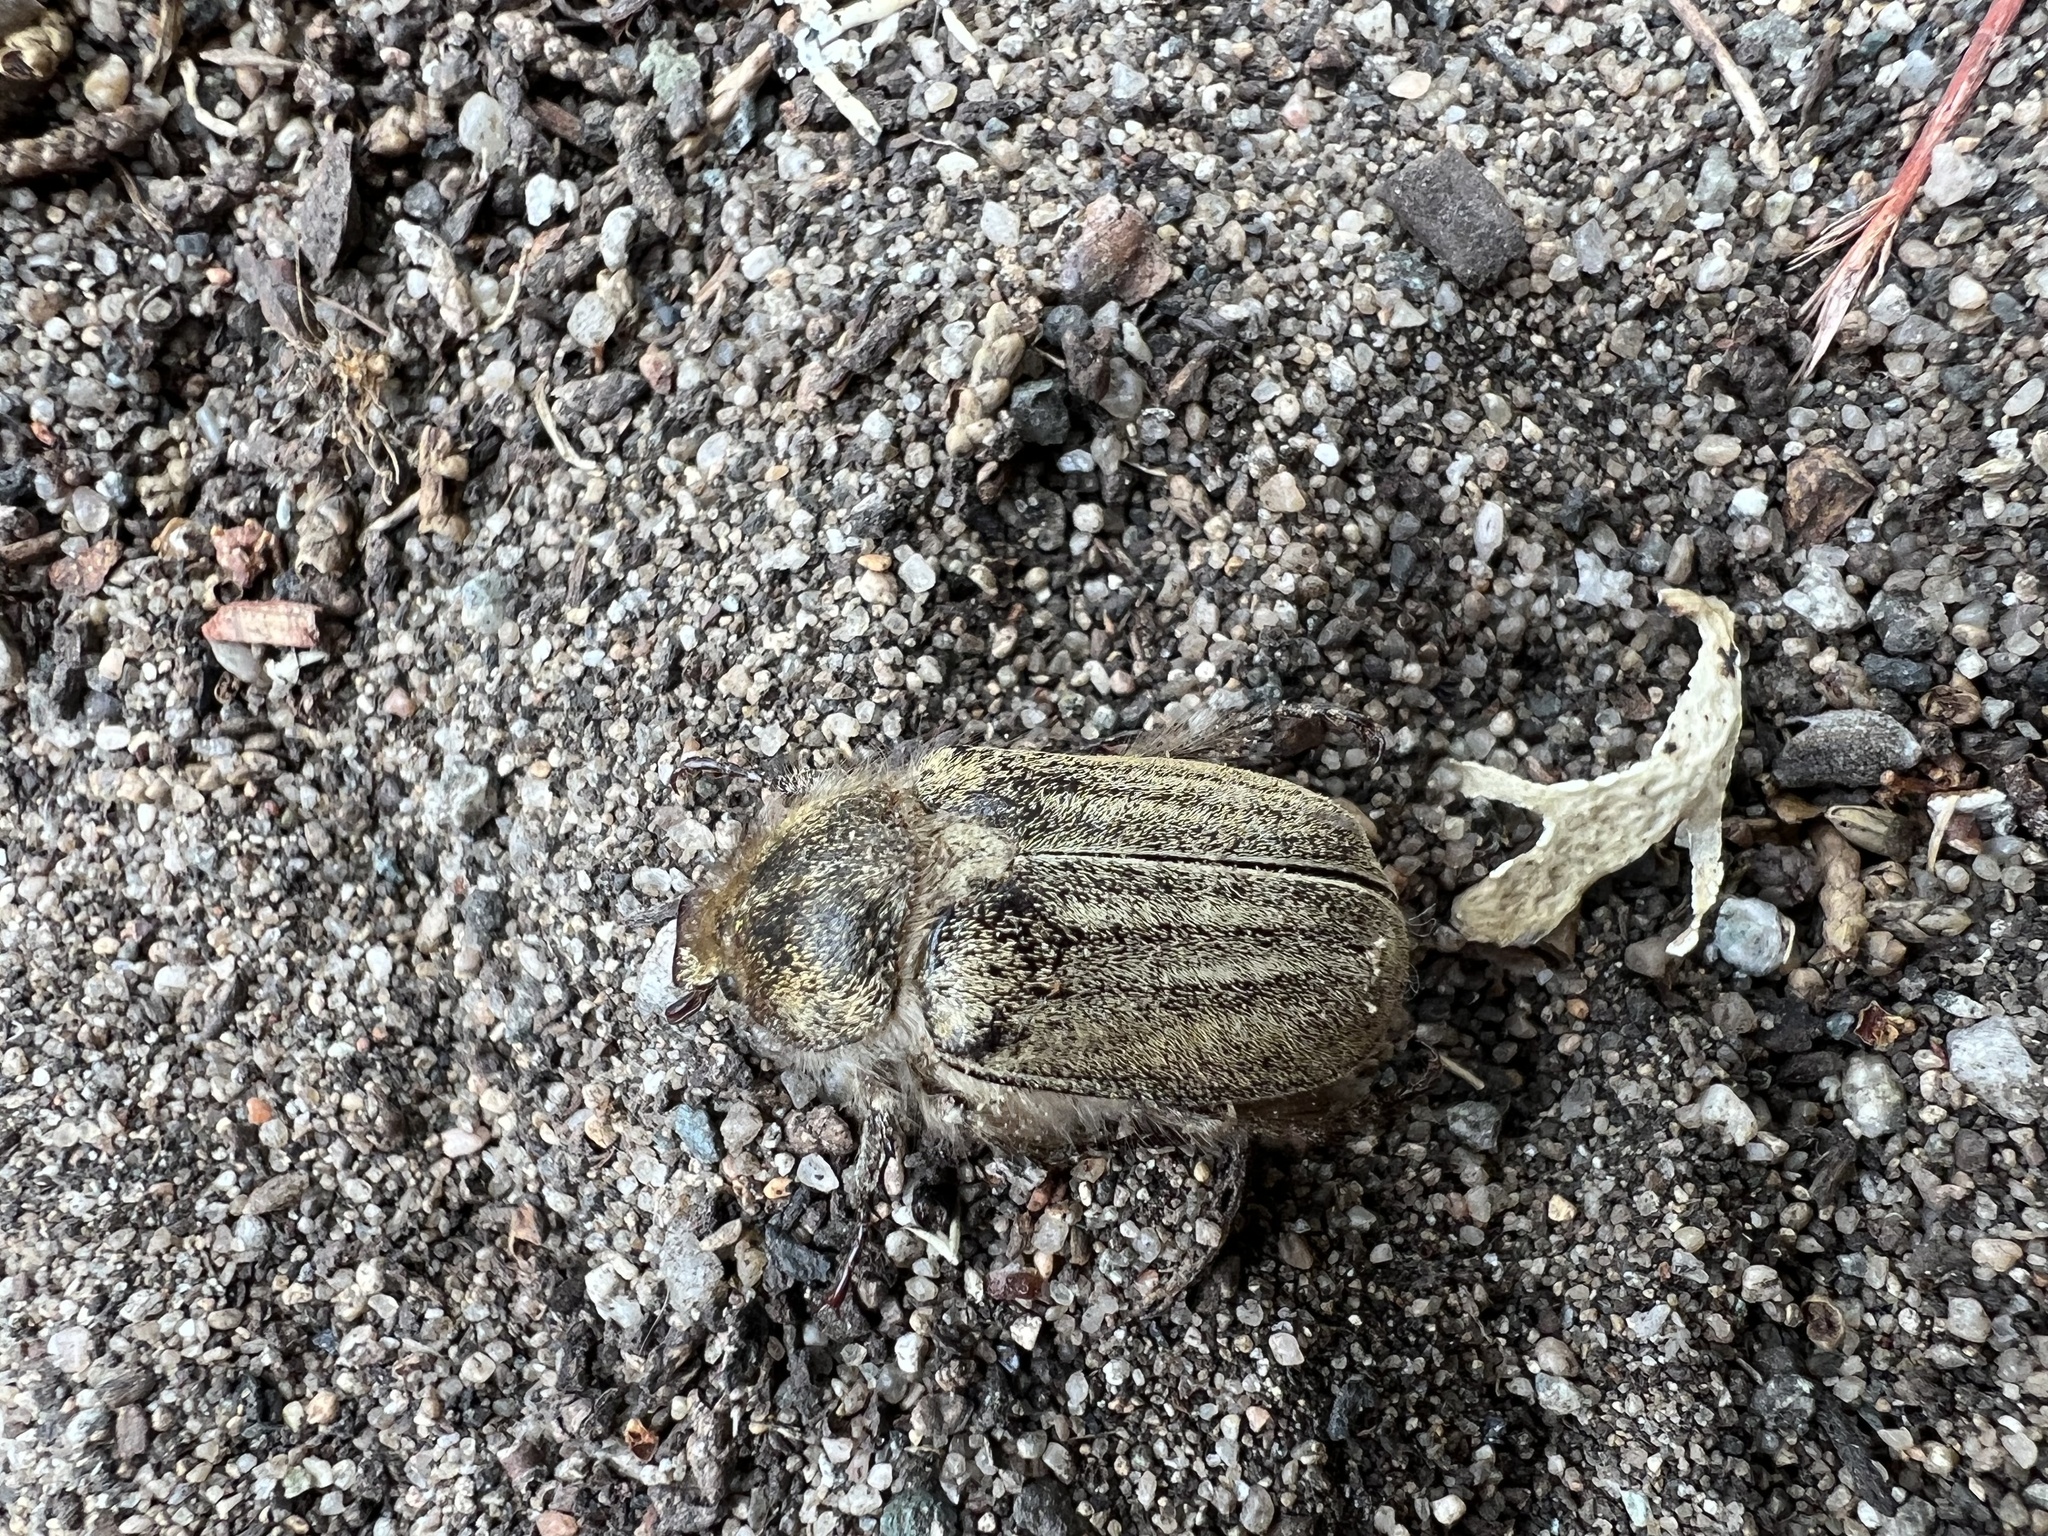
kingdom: Animalia
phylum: Arthropoda
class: Insecta
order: Coleoptera
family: Scarabaeidae
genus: Amblonoxia
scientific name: Amblonoxia harfordi
